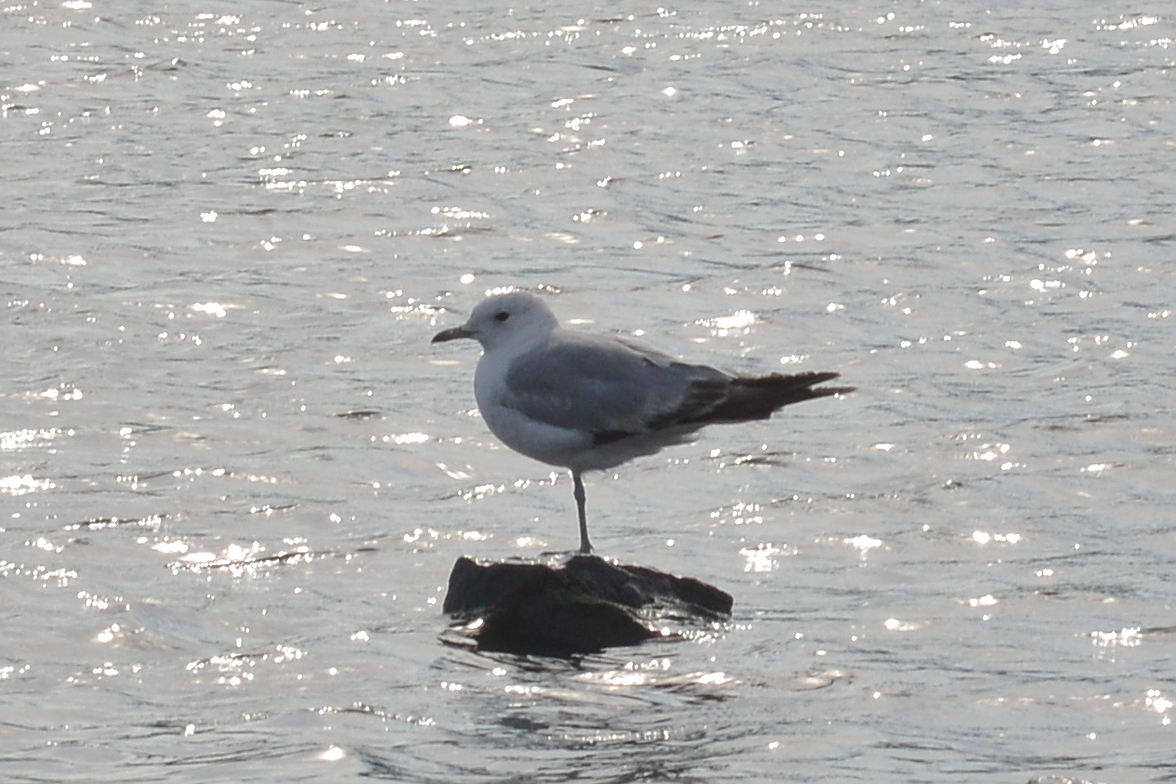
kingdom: Animalia
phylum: Chordata
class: Aves
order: Charadriiformes
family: Laridae
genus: Larus
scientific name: Larus canus
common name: Mew gull
